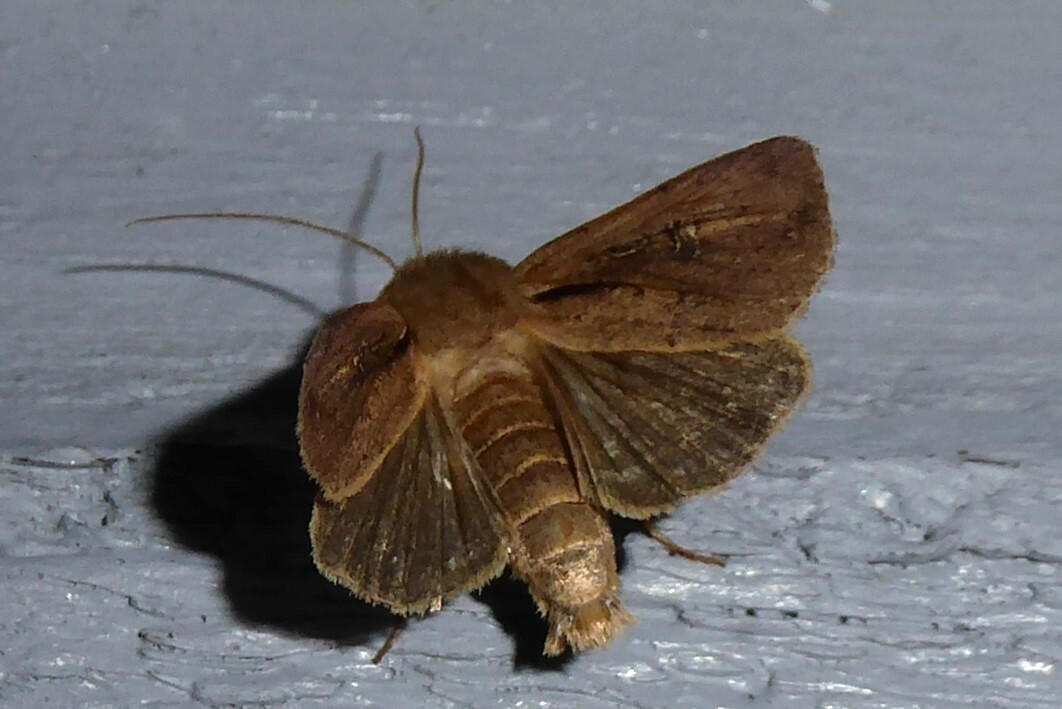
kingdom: Animalia
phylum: Arthropoda
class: Insecta
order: Lepidoptera
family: Noctuidae
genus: Ichneutica
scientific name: Ichneutica atristriga
